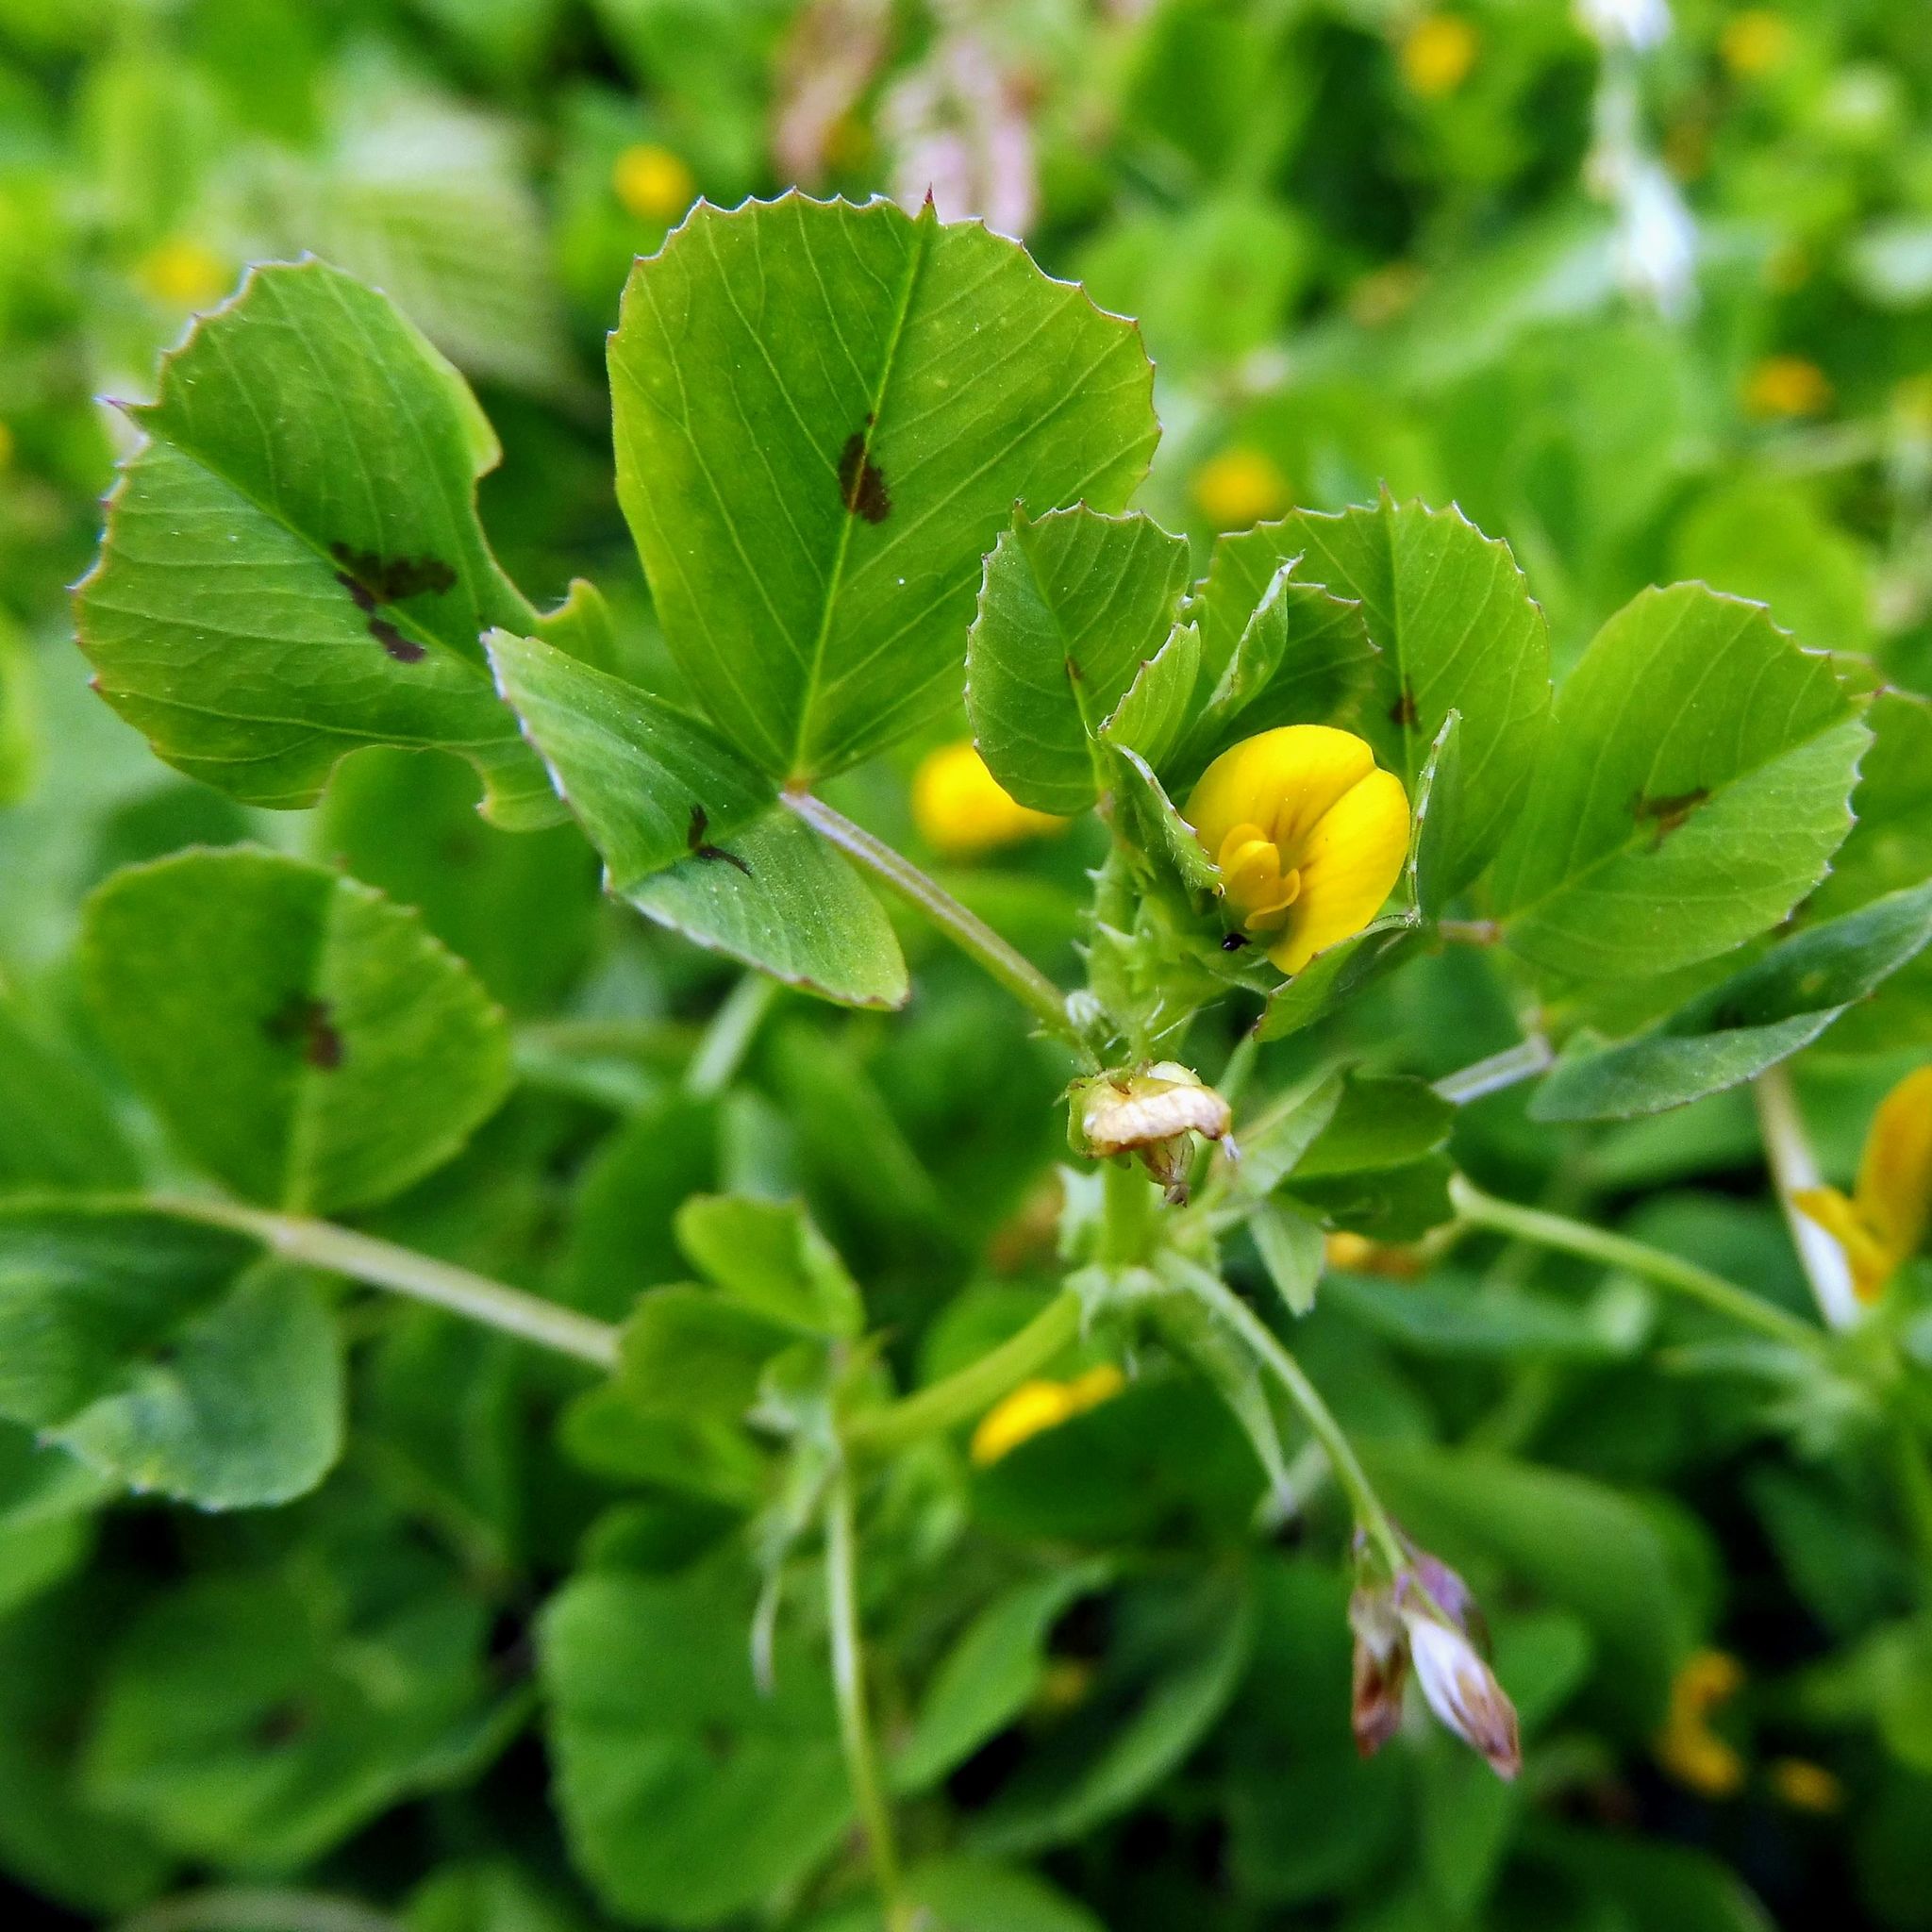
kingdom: Plantae
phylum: Tracheophyta
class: Magnoliopsida
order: Fabales
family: Fabaceae
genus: Medicago
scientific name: Medicago arabica
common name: Spotted medick
